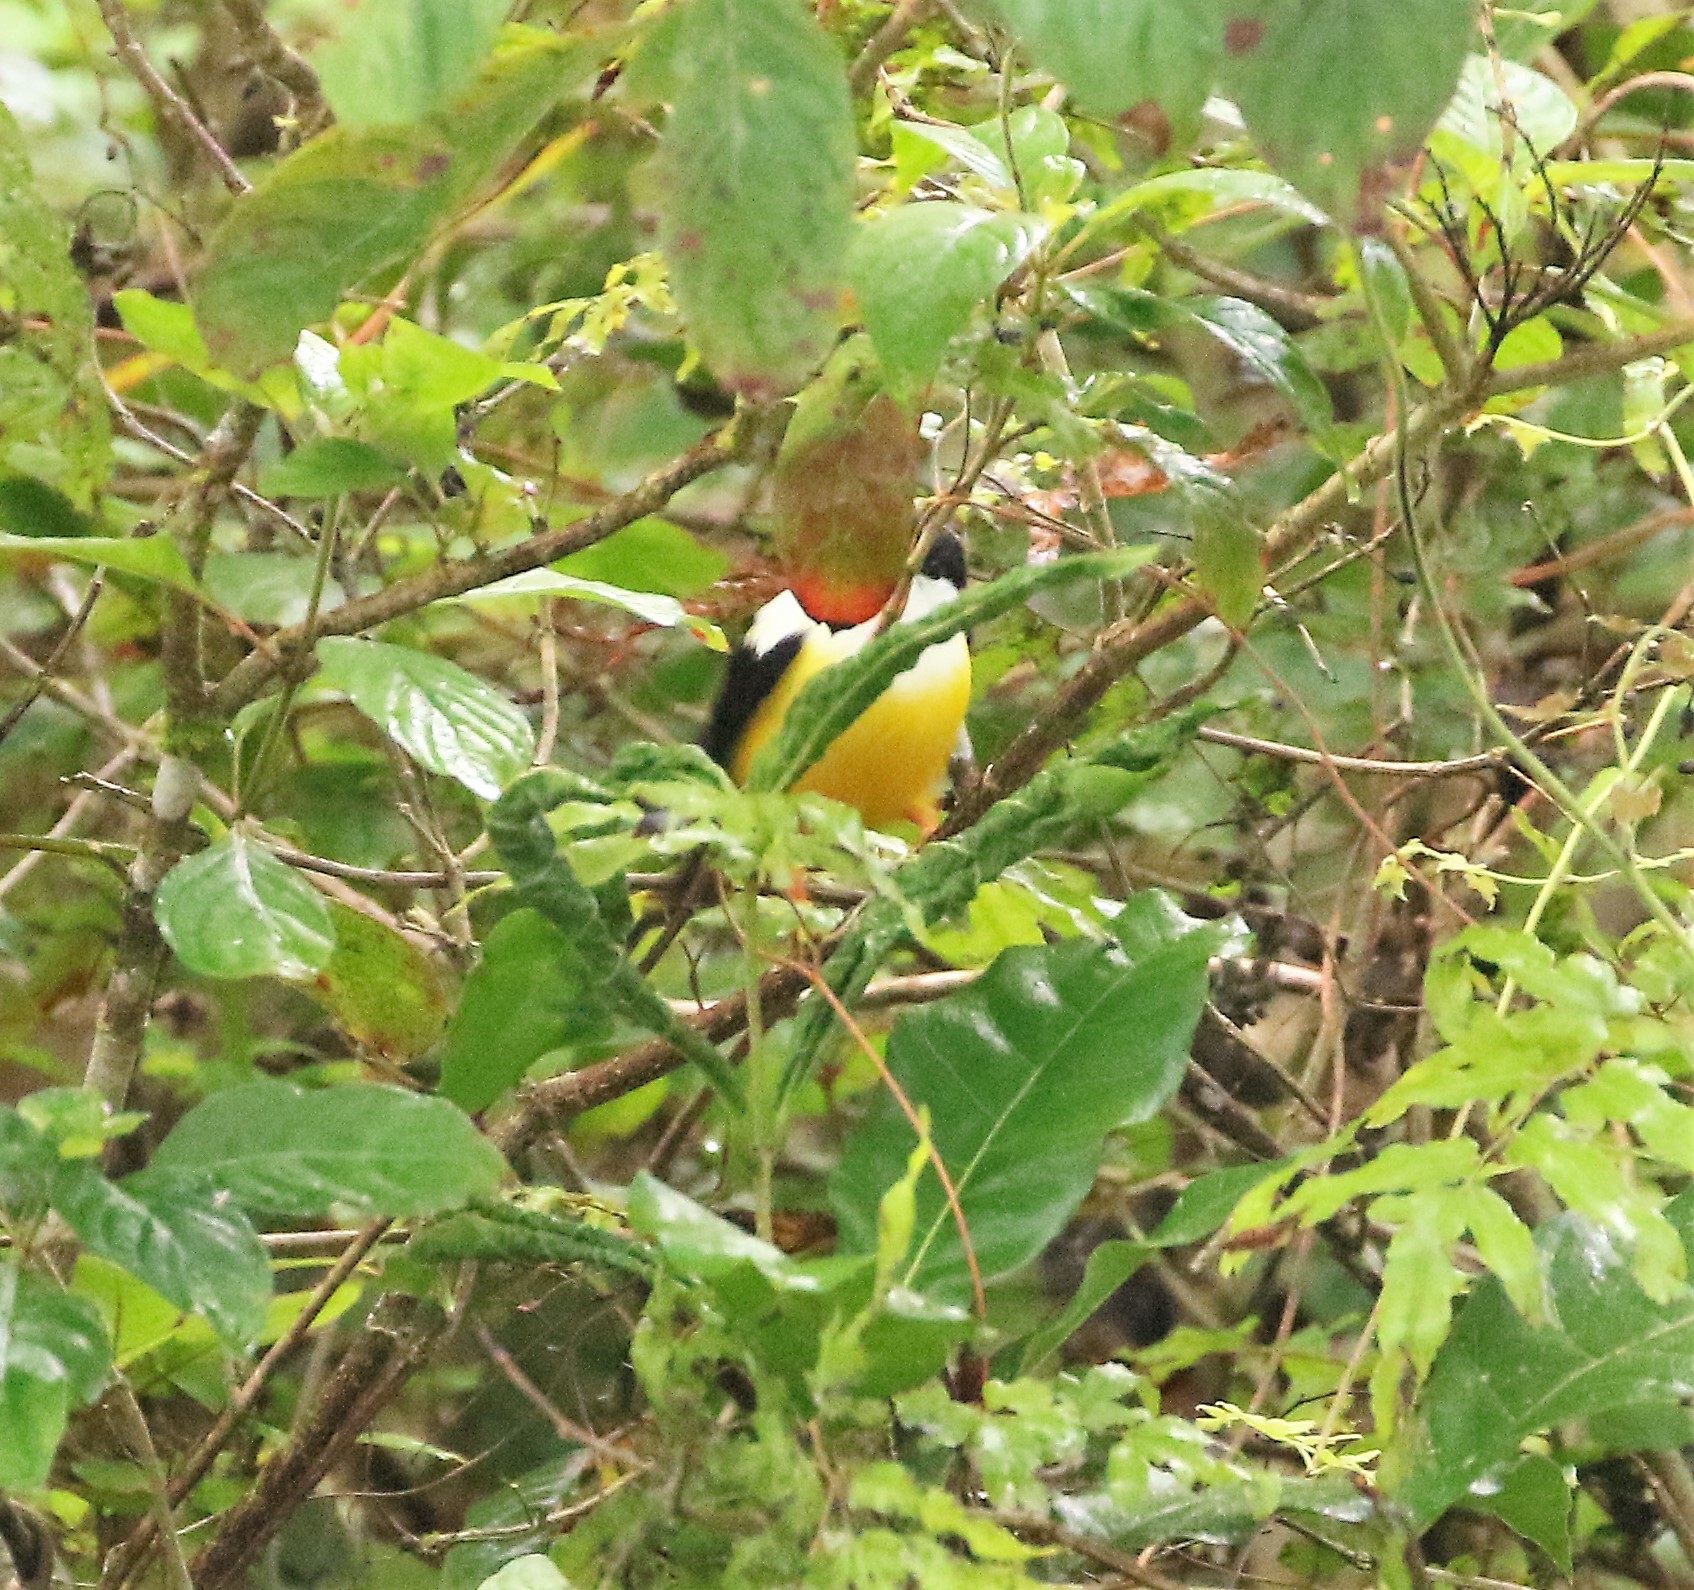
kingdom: Animalia
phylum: Chordata
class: Aves
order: Passeriformes
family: Pipridae
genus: Manacus
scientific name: Manacus candei
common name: White-collared manakin
